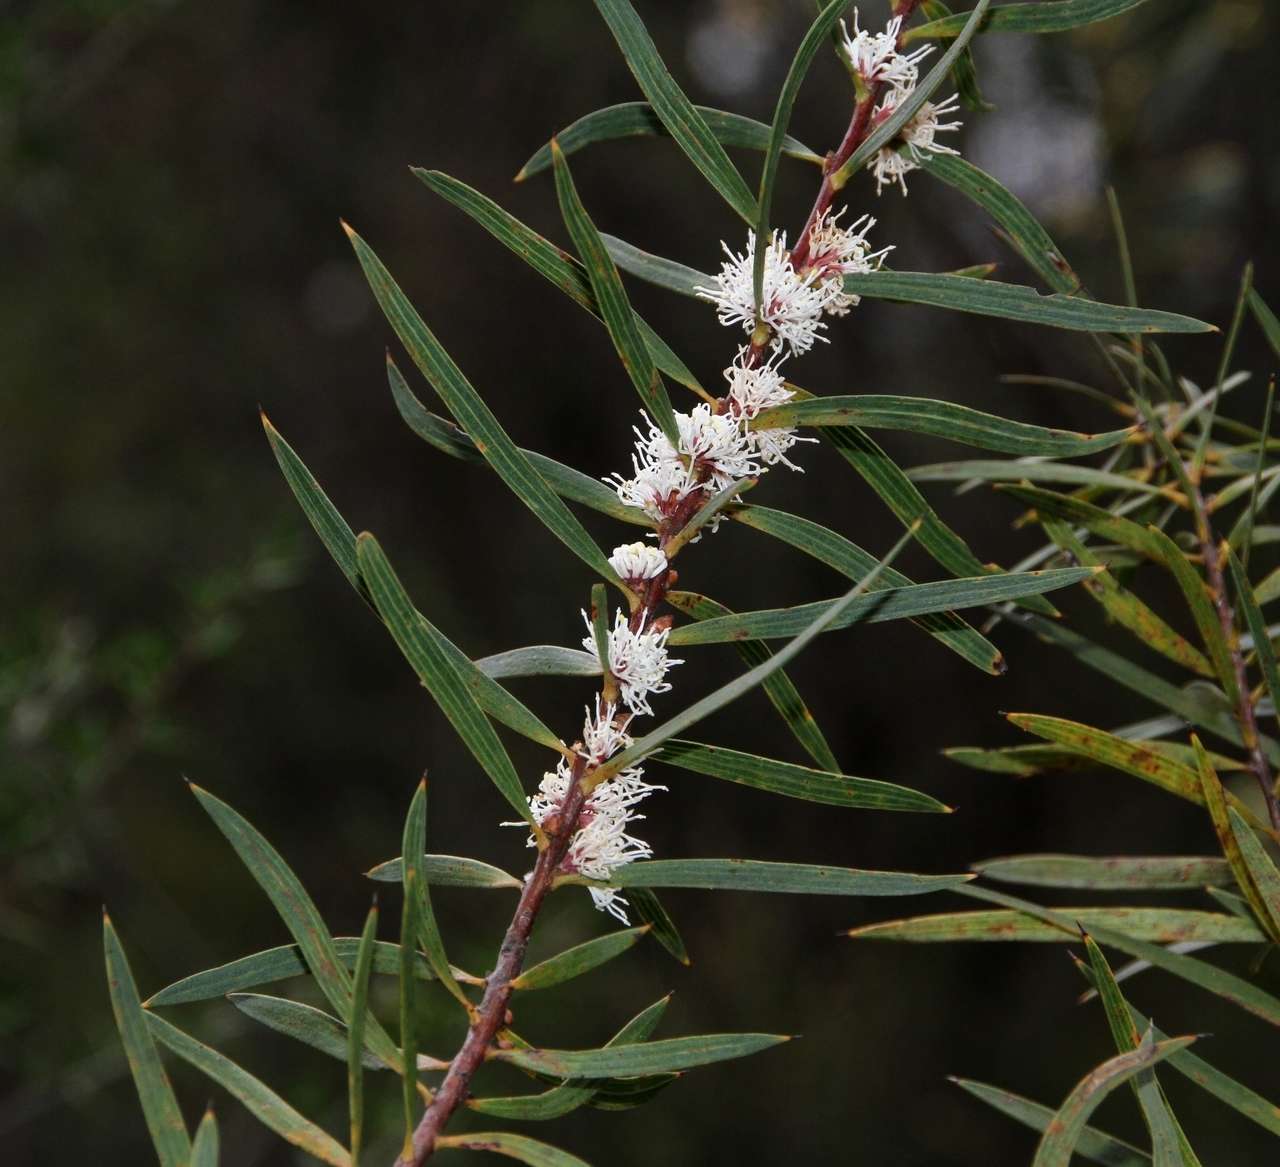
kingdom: Plantae
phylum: Tracheophyta
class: Magnoliopsida
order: Proteales
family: Proteaceae
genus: Hakea
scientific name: Hakea repullulans
